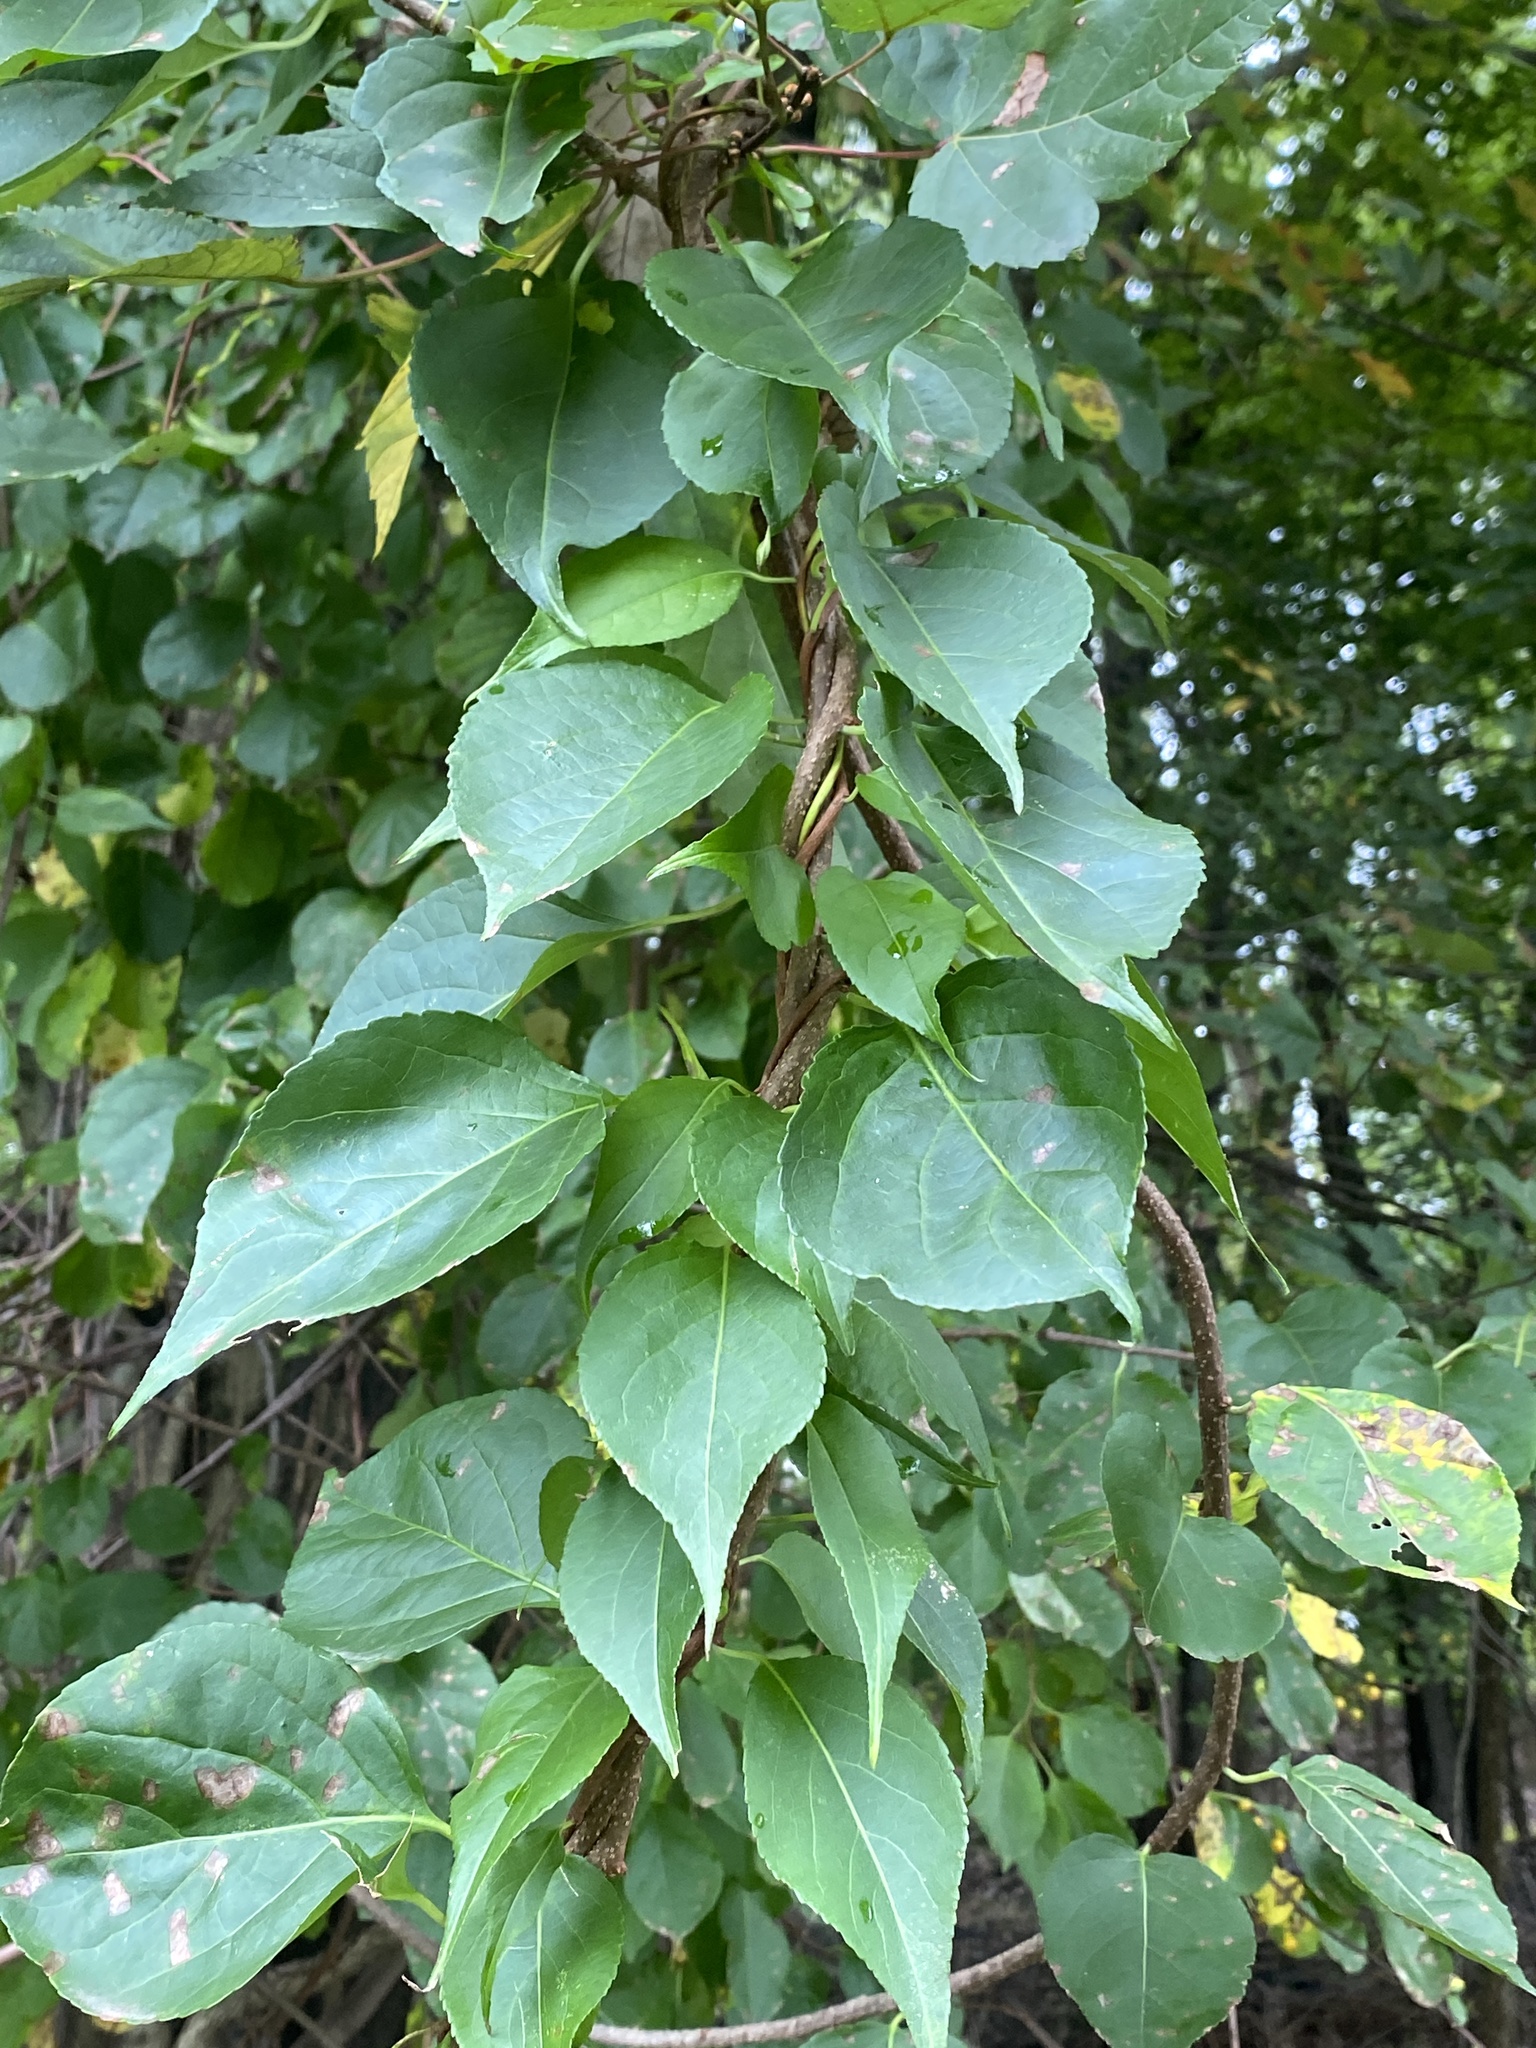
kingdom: Plantae
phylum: Tracheophyta
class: Magnoliopsida
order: Celastrales
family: Celastraceae
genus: Celastrus
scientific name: Celastrus orbiculatus
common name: Oriental bittersweet
